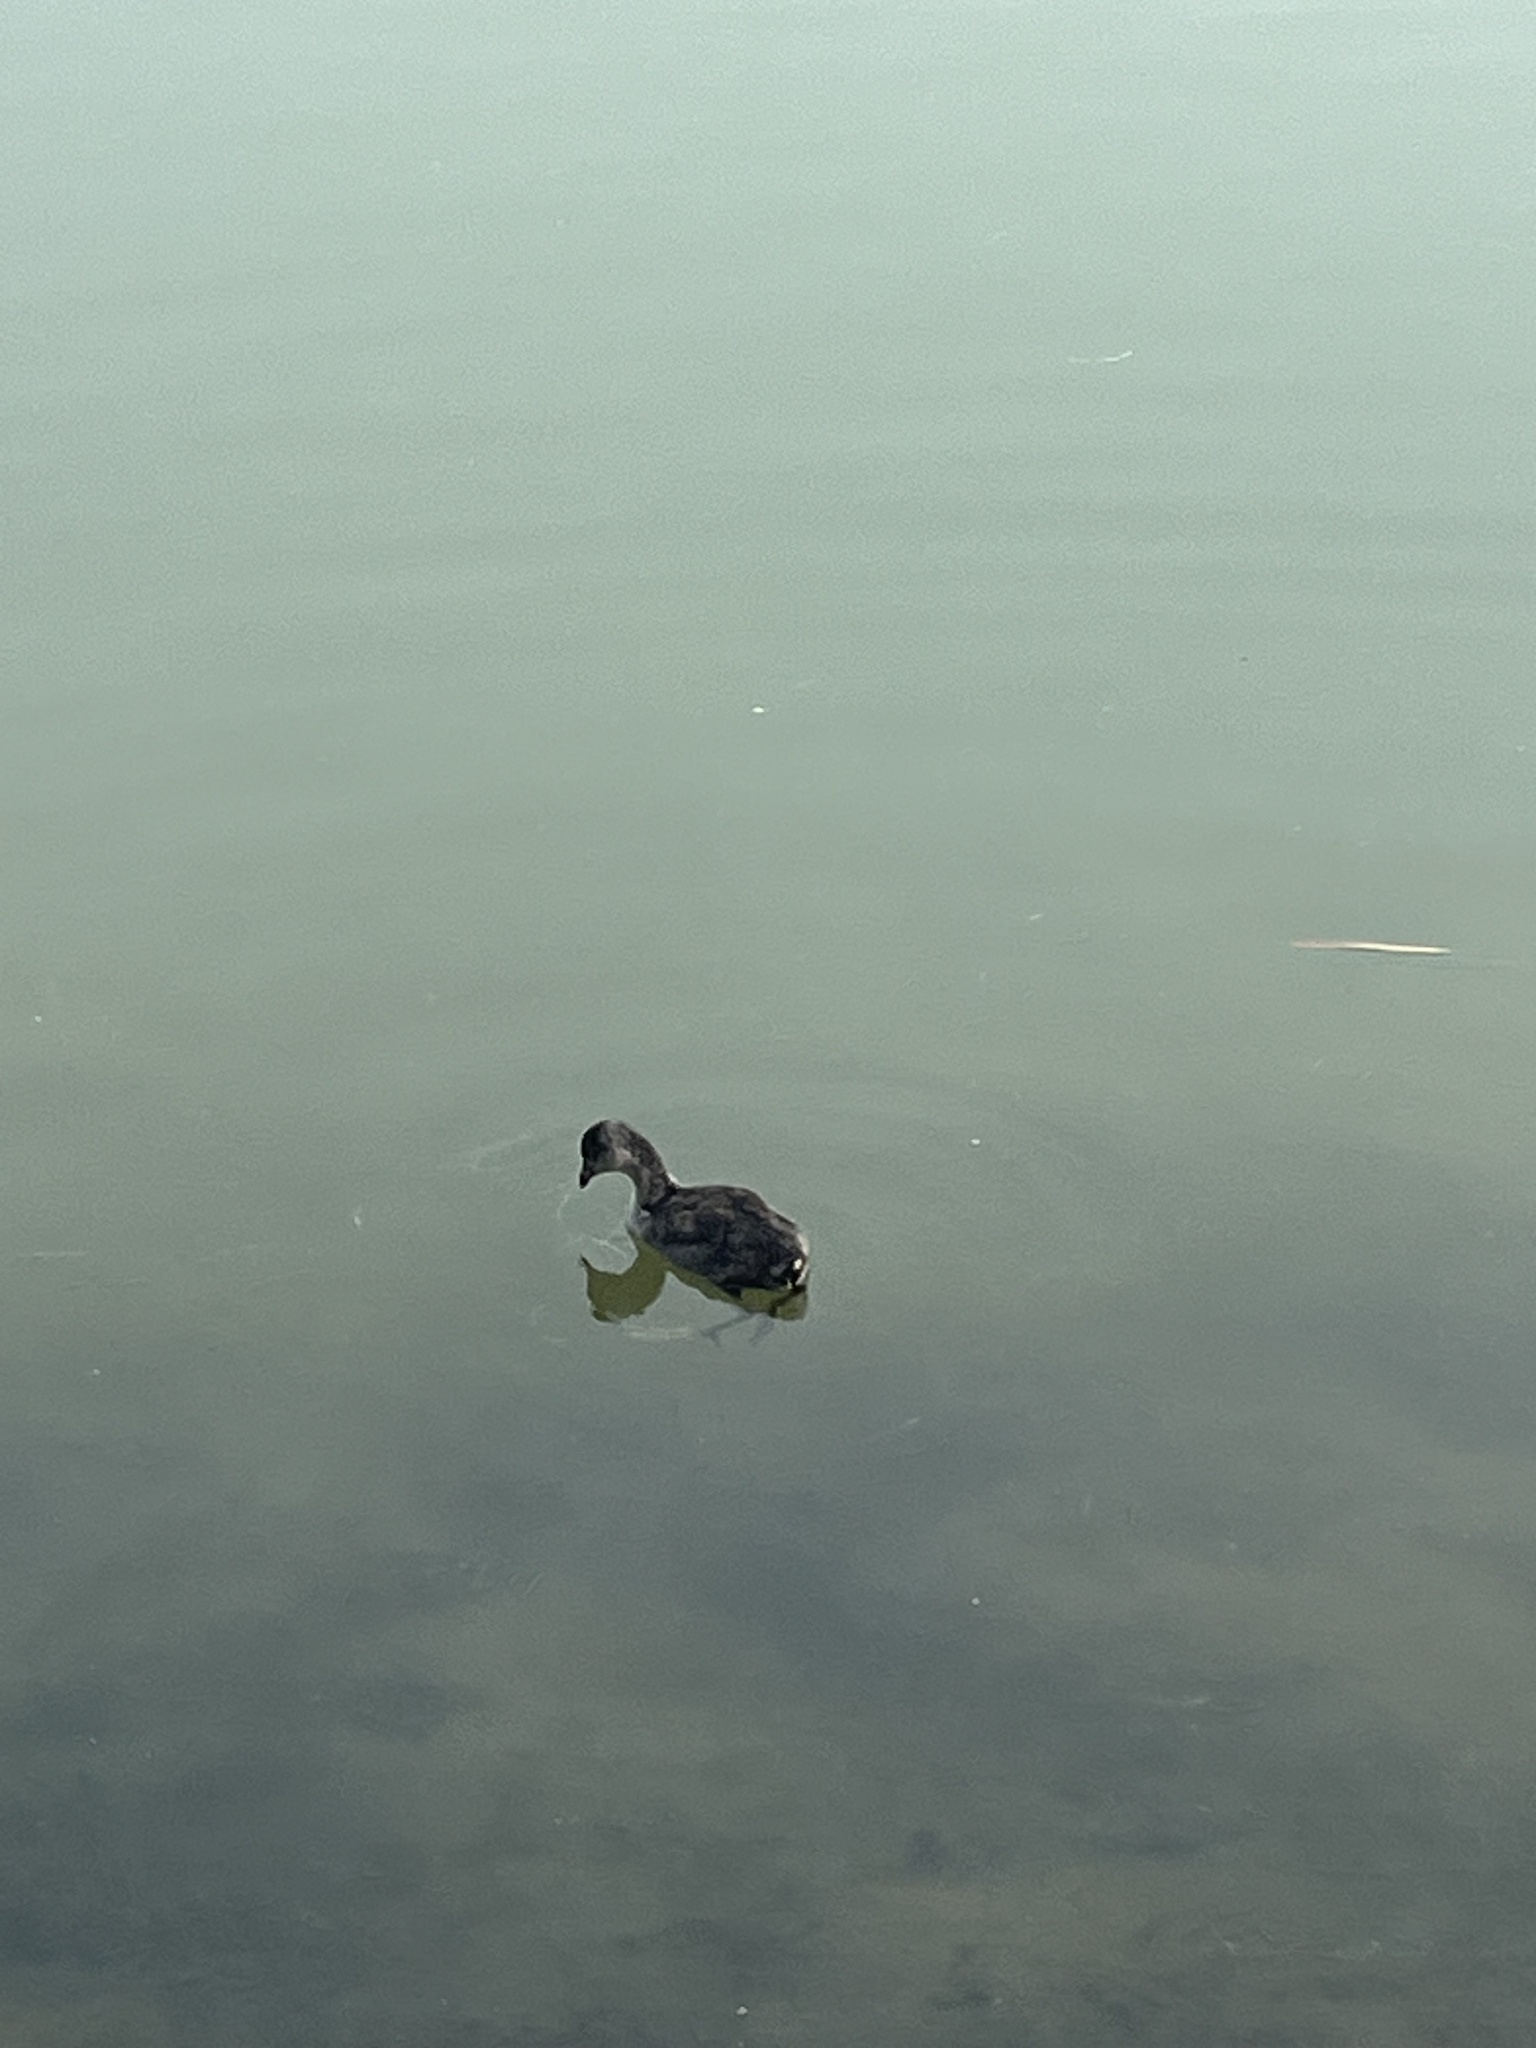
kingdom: Animalia
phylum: Chordata
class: Aves
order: Gruiformes
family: Rallidae
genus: Fulica
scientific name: Fulica americana
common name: American coot
